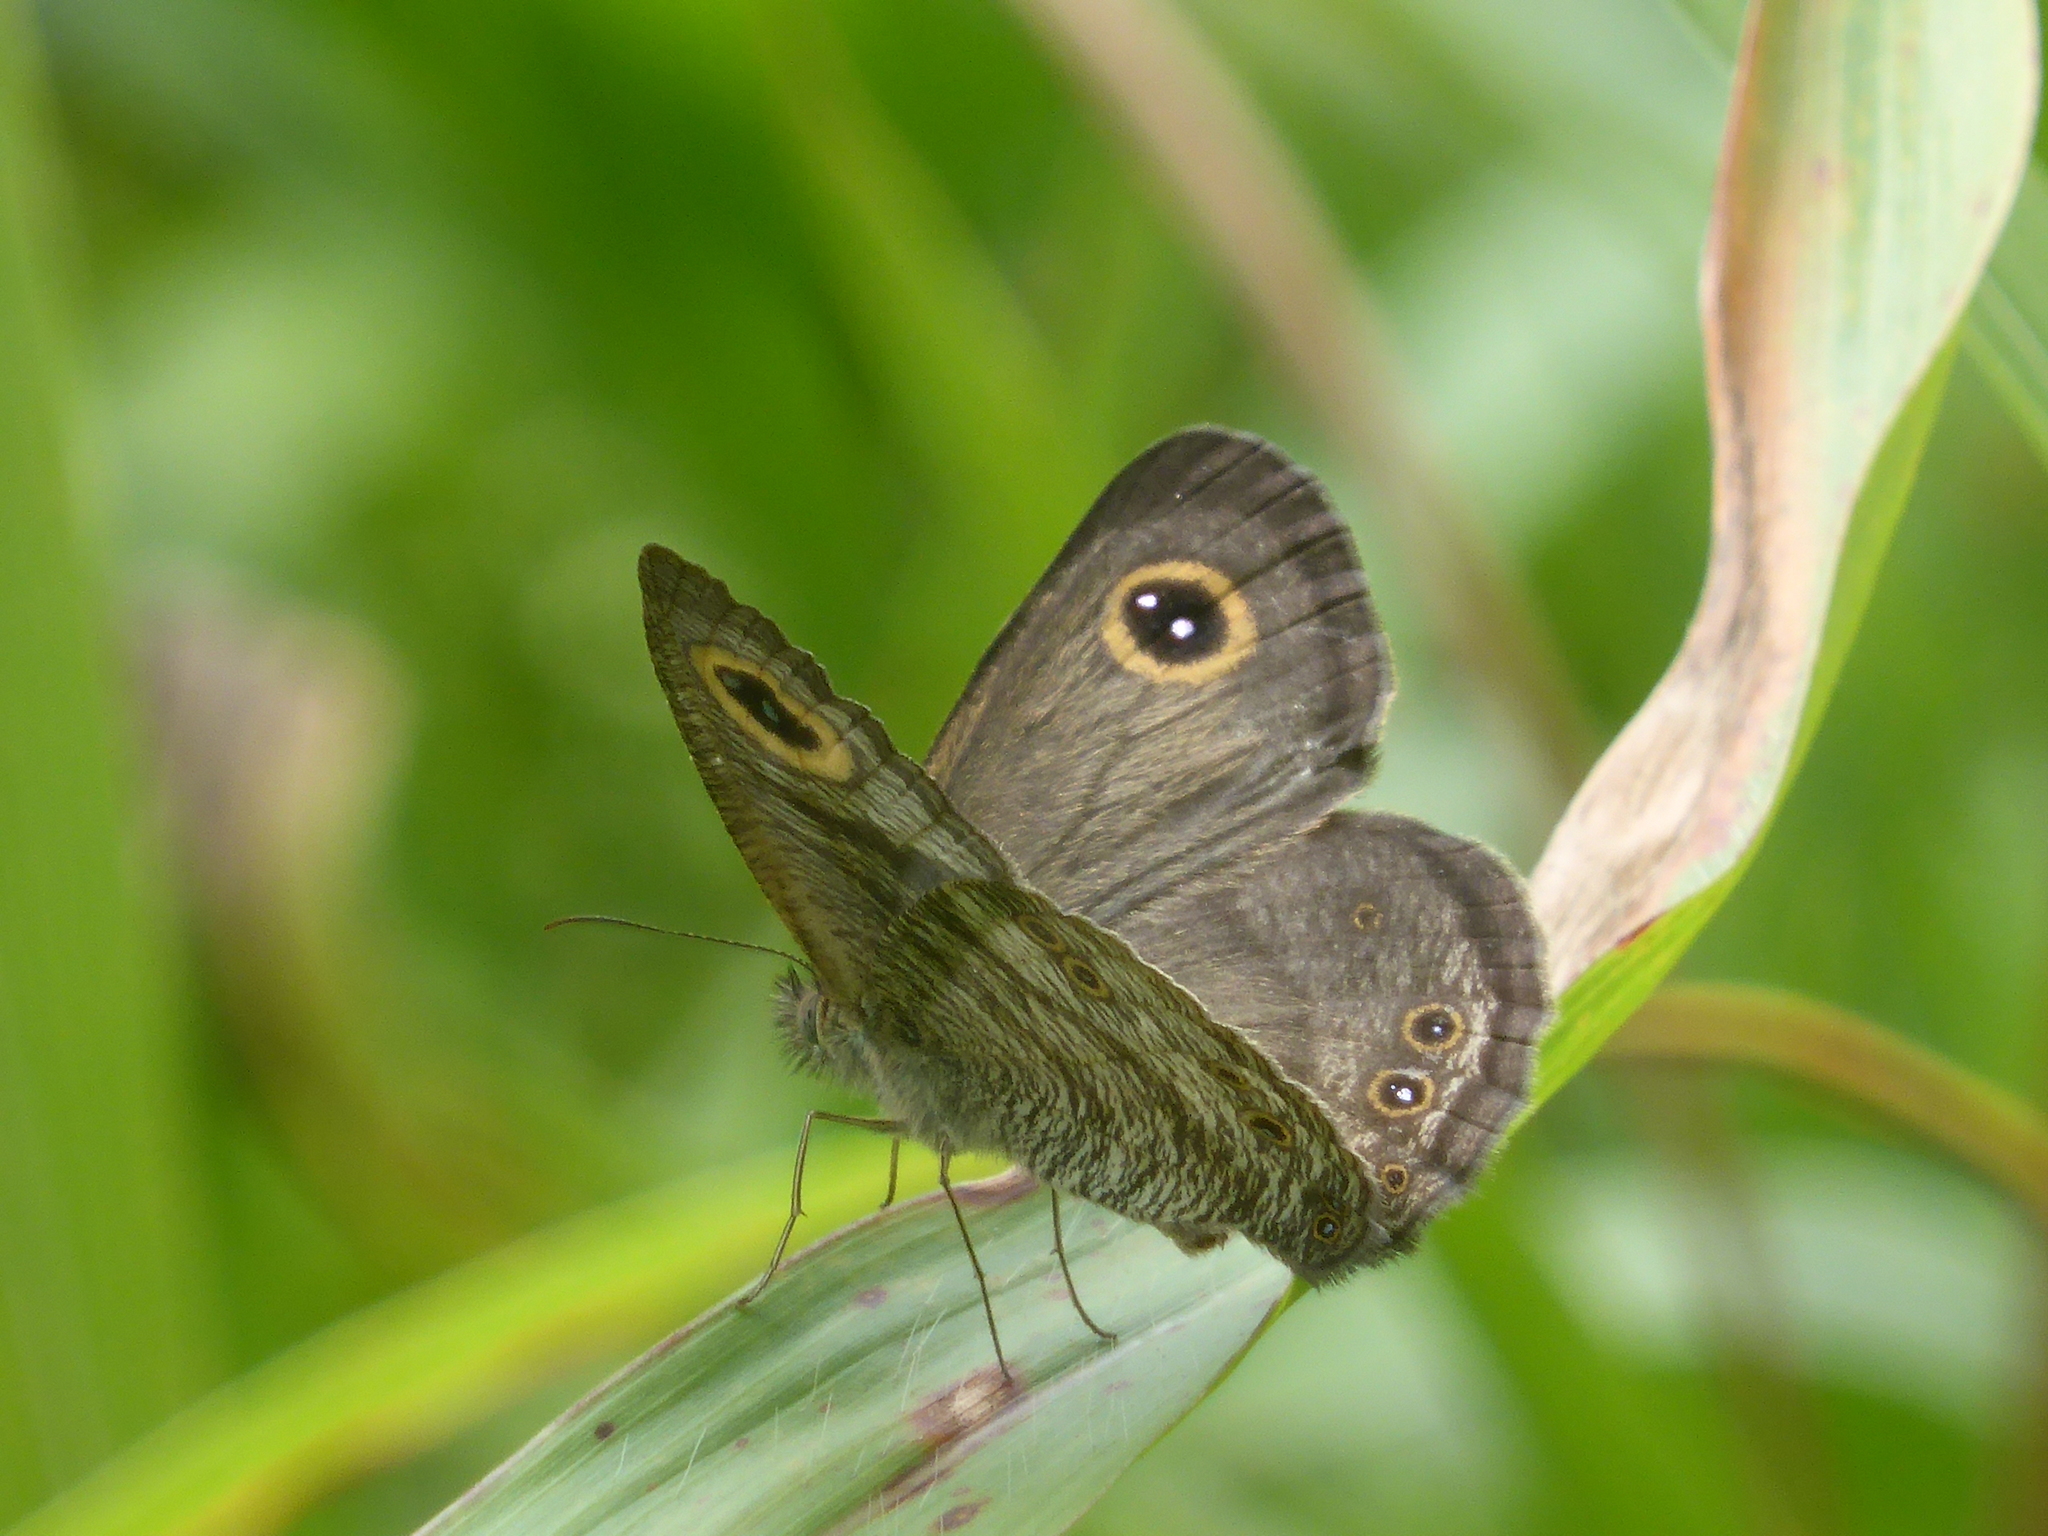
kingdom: Animalia
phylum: Arthropoda
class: Insecta
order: Lepidoptera
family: Nymphalidae
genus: Ypthima
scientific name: Ypthima baldus
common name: Common five-ring
